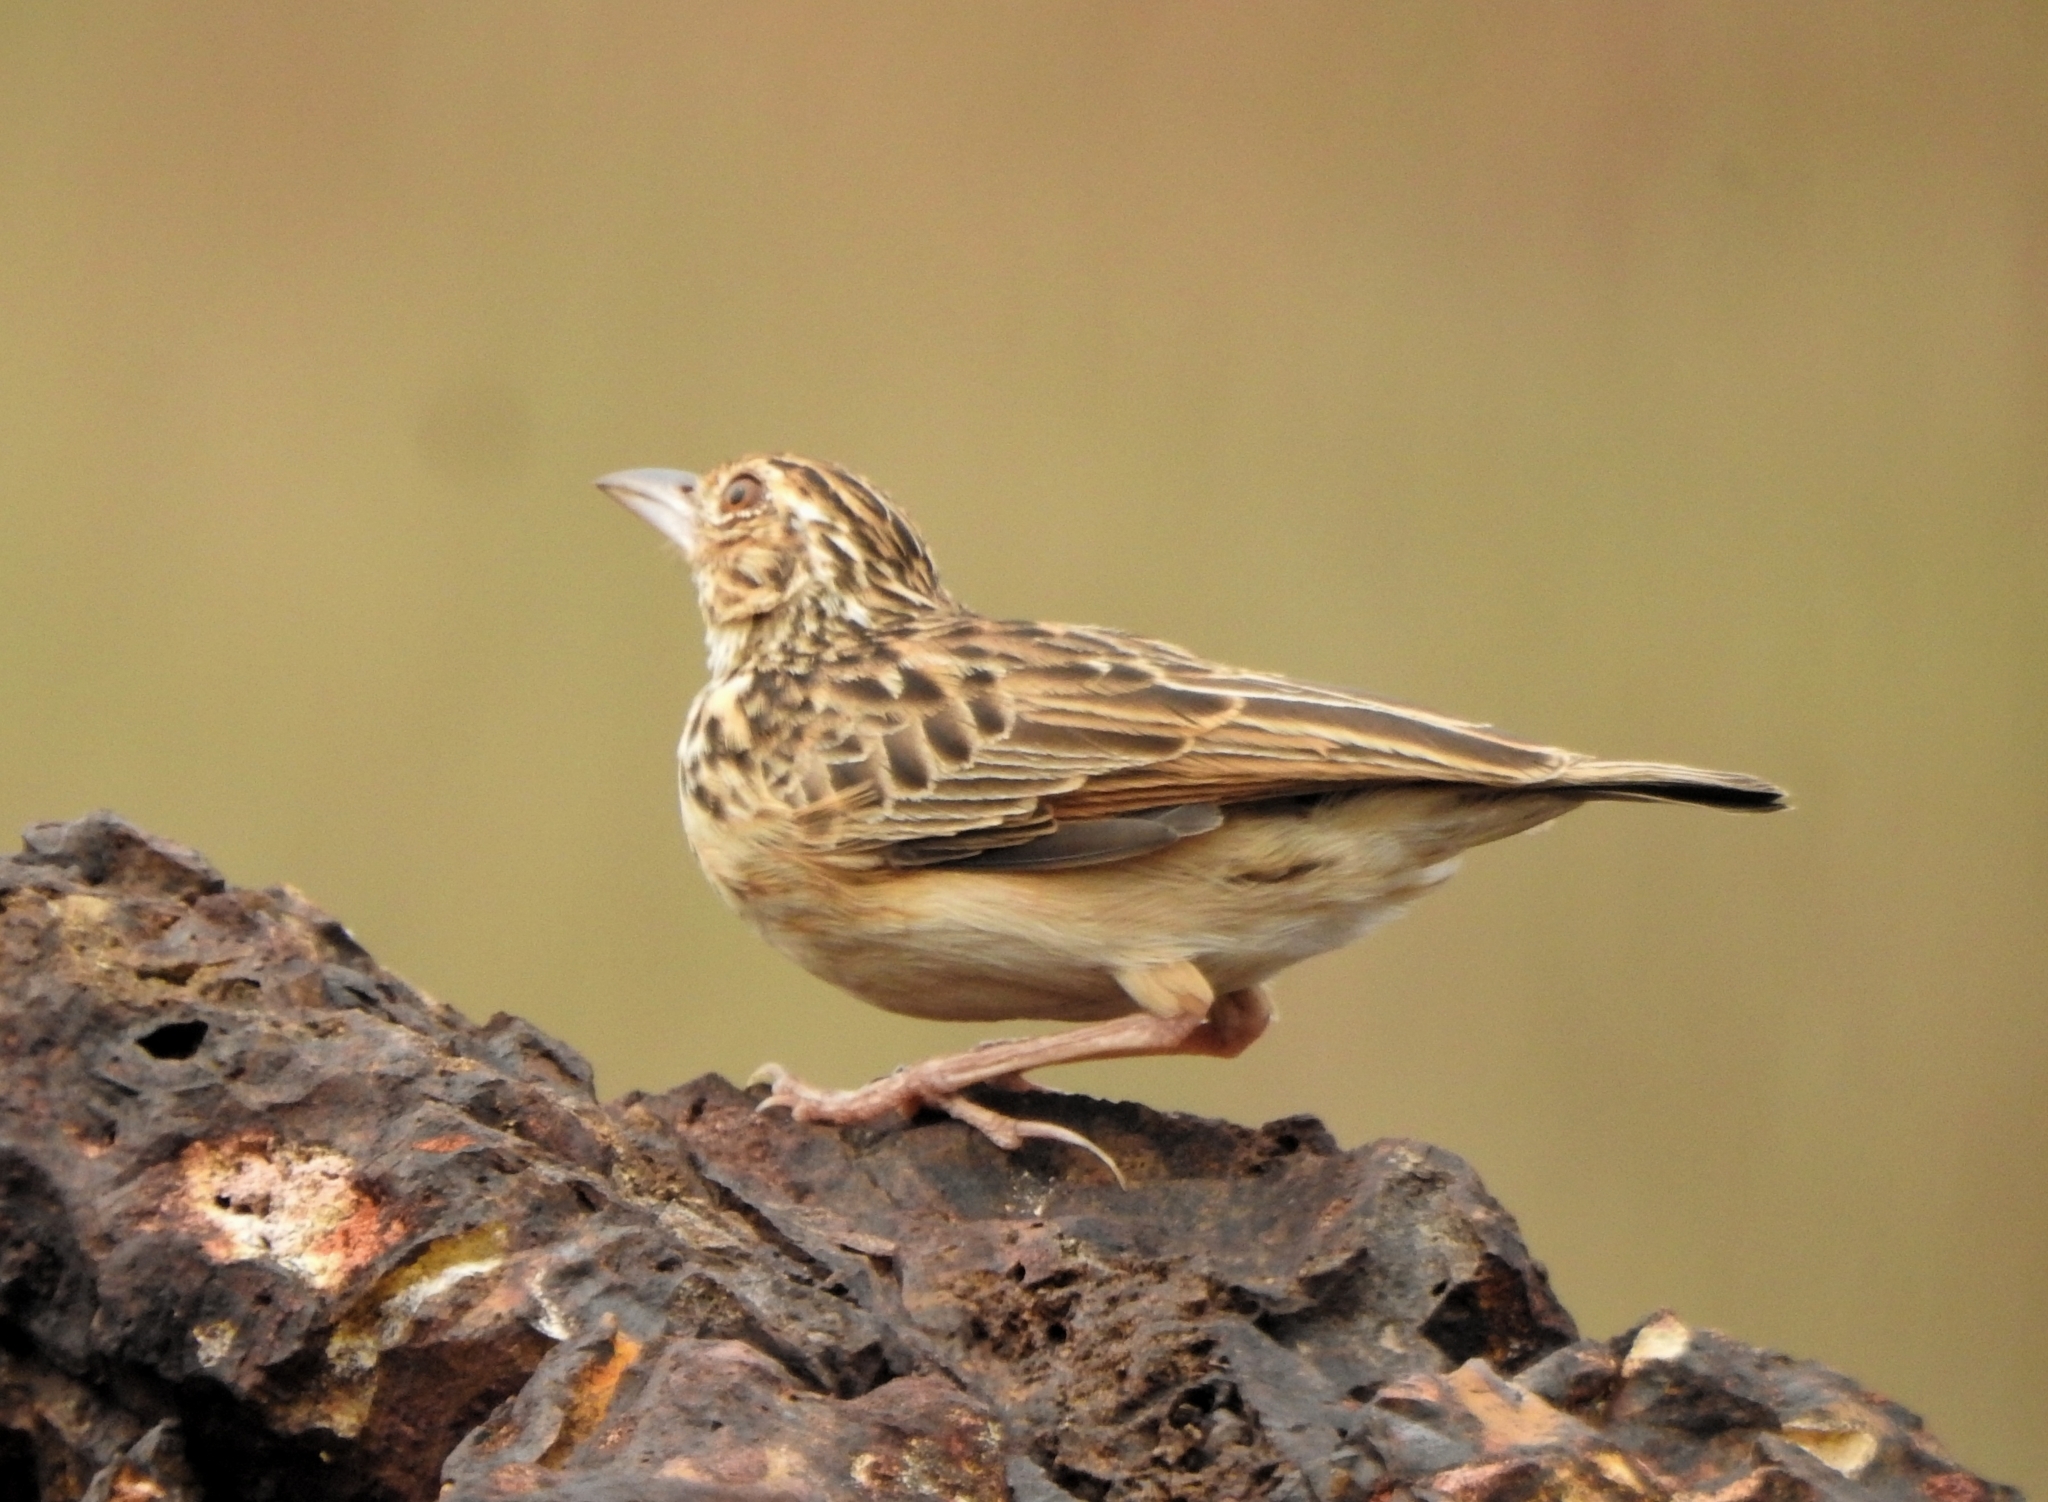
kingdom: Animalia
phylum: Chordata
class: Aves
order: Passeriformes
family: Alaudidae
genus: Mirafra
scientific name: Mirafra affinis
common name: Jerdon's bushlark
